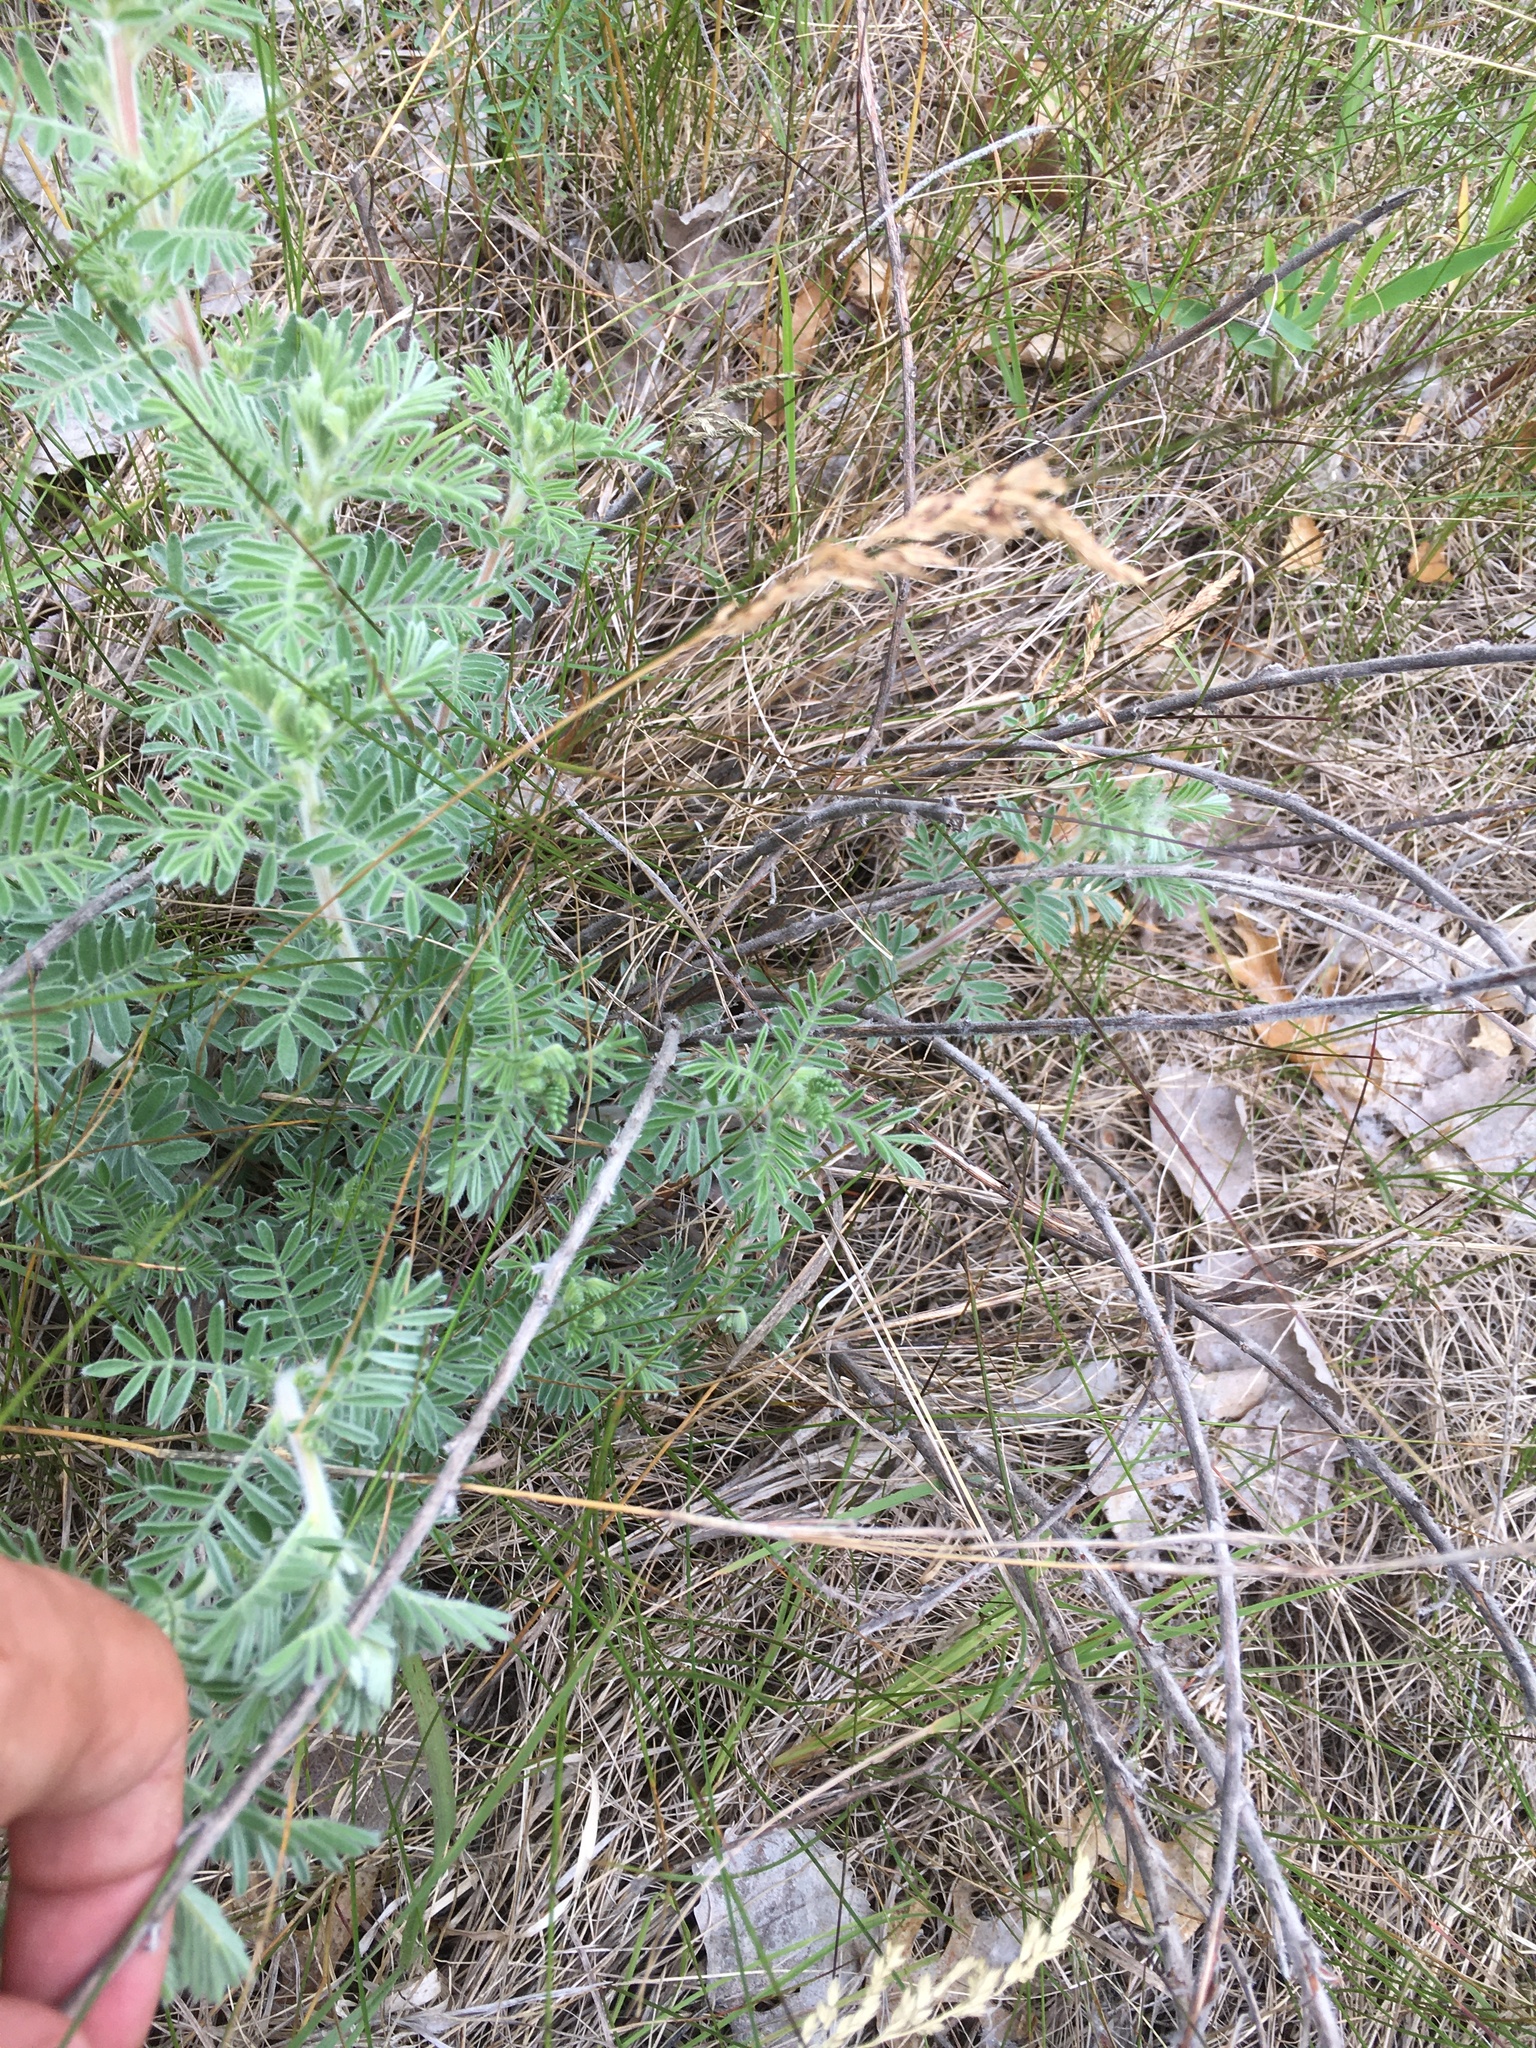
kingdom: Plantae
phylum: Tracheophyta
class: Magnoliopsida
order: Fabales
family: Fabaceae
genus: Dalea
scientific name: Dalea villosa
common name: Silky prairie-clover
